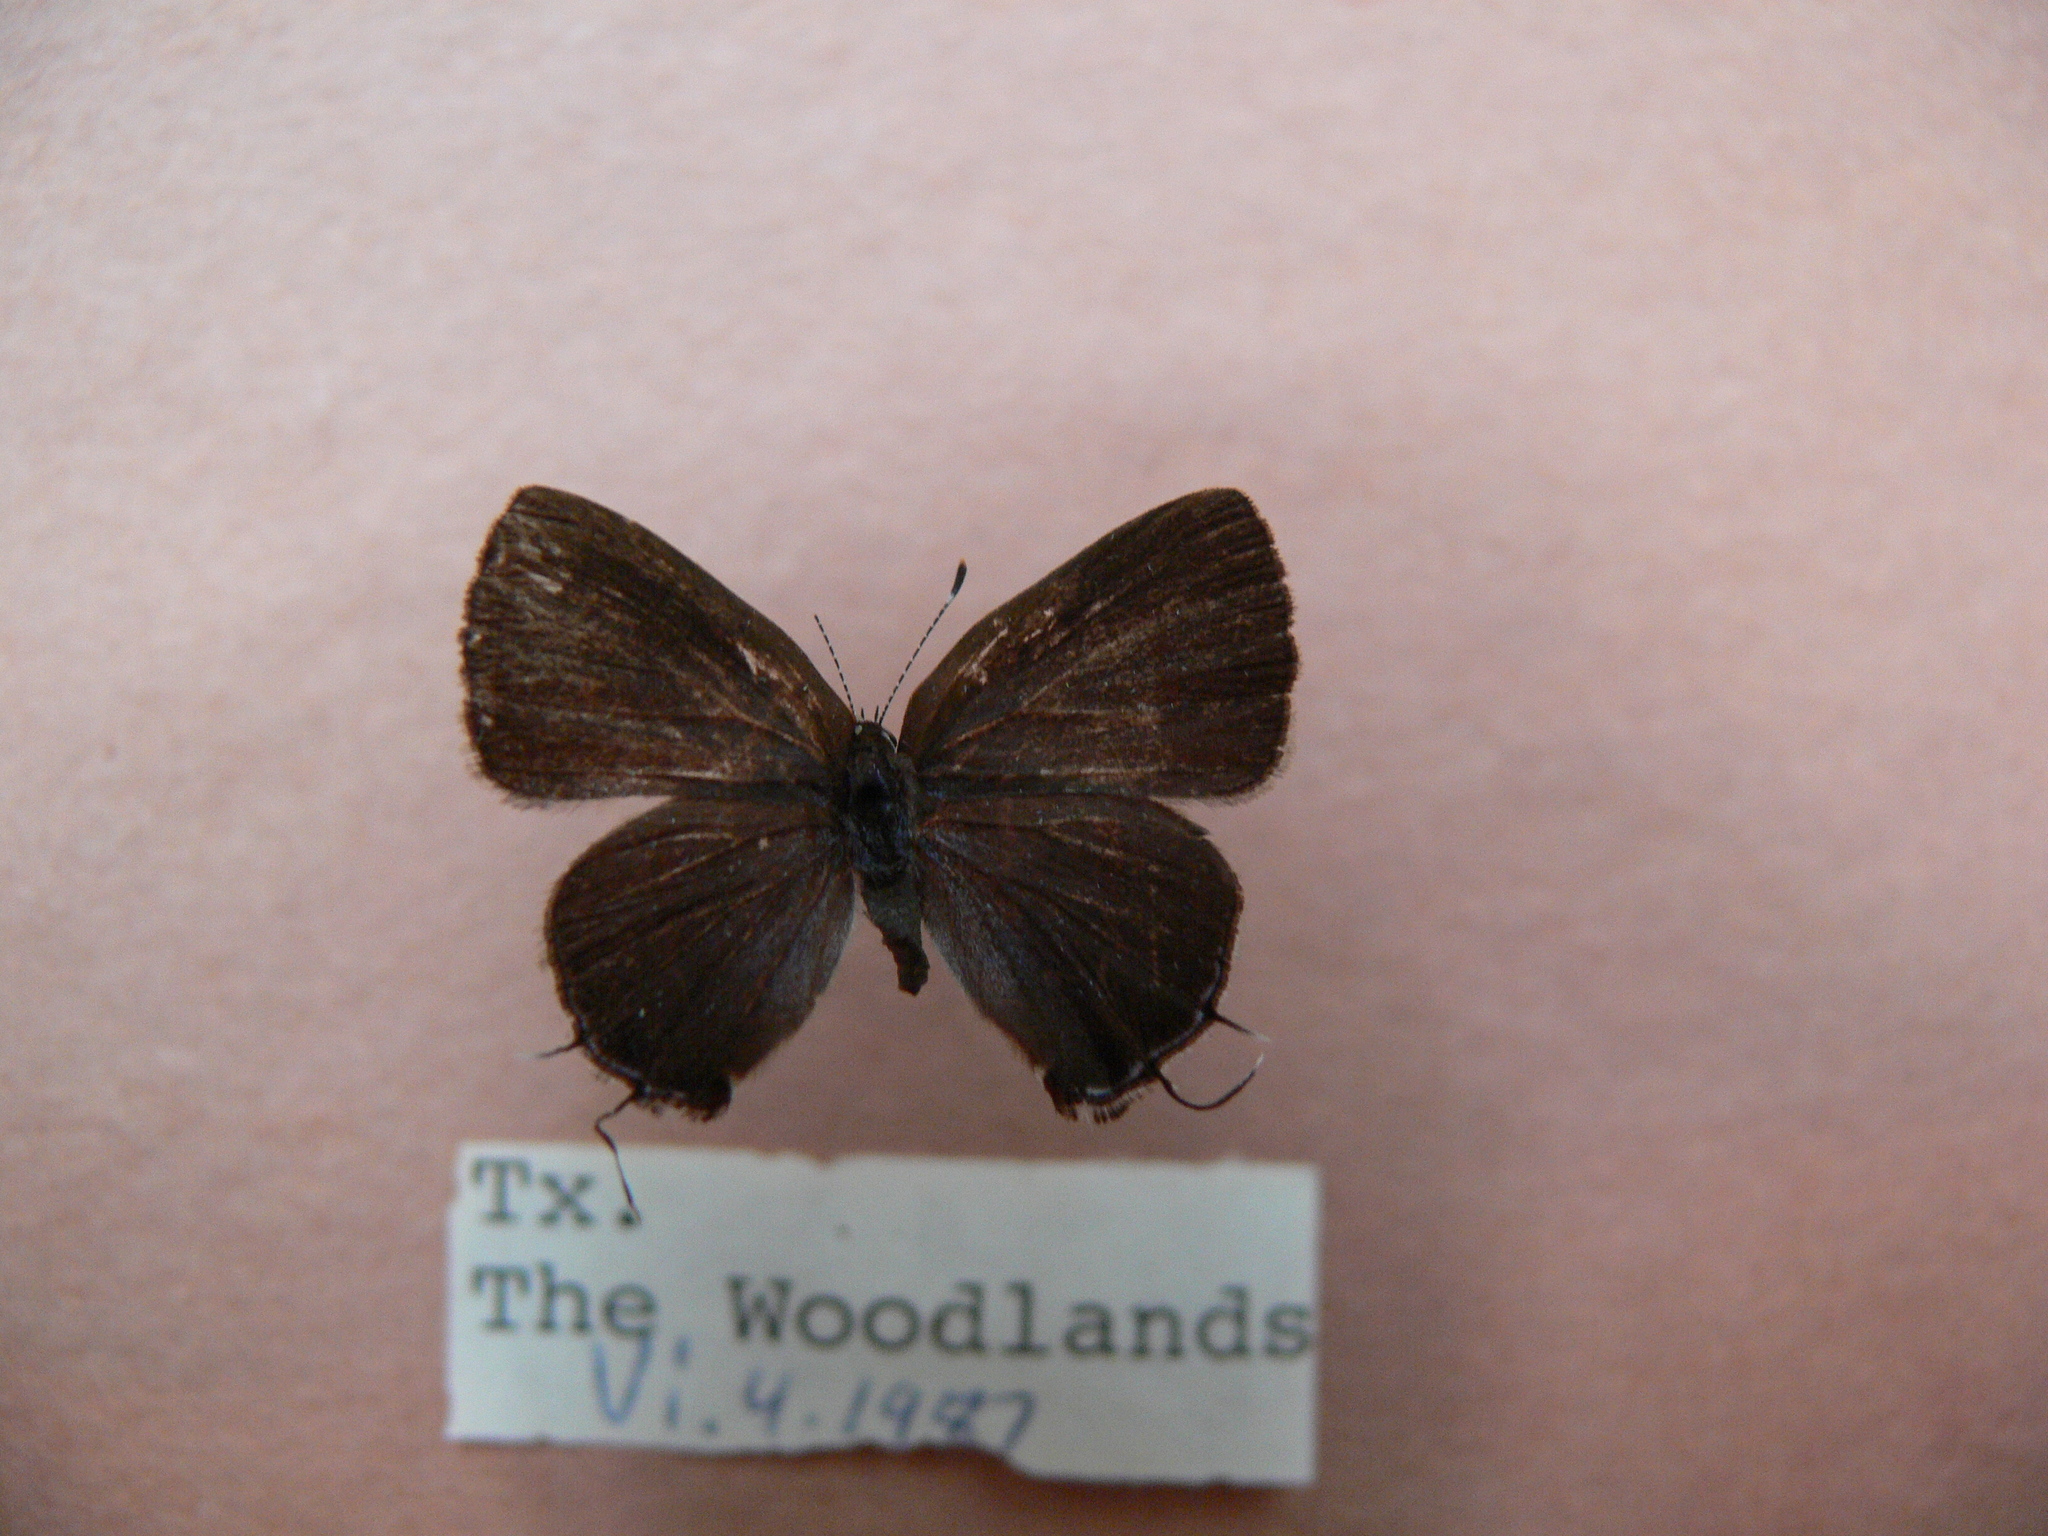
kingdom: Animalia
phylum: Arthropoda
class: Insecta
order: Lepidoptera
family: Lycaenidae
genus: Calycopis
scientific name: Calycopis cecrops
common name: Red-banded hairstreak
